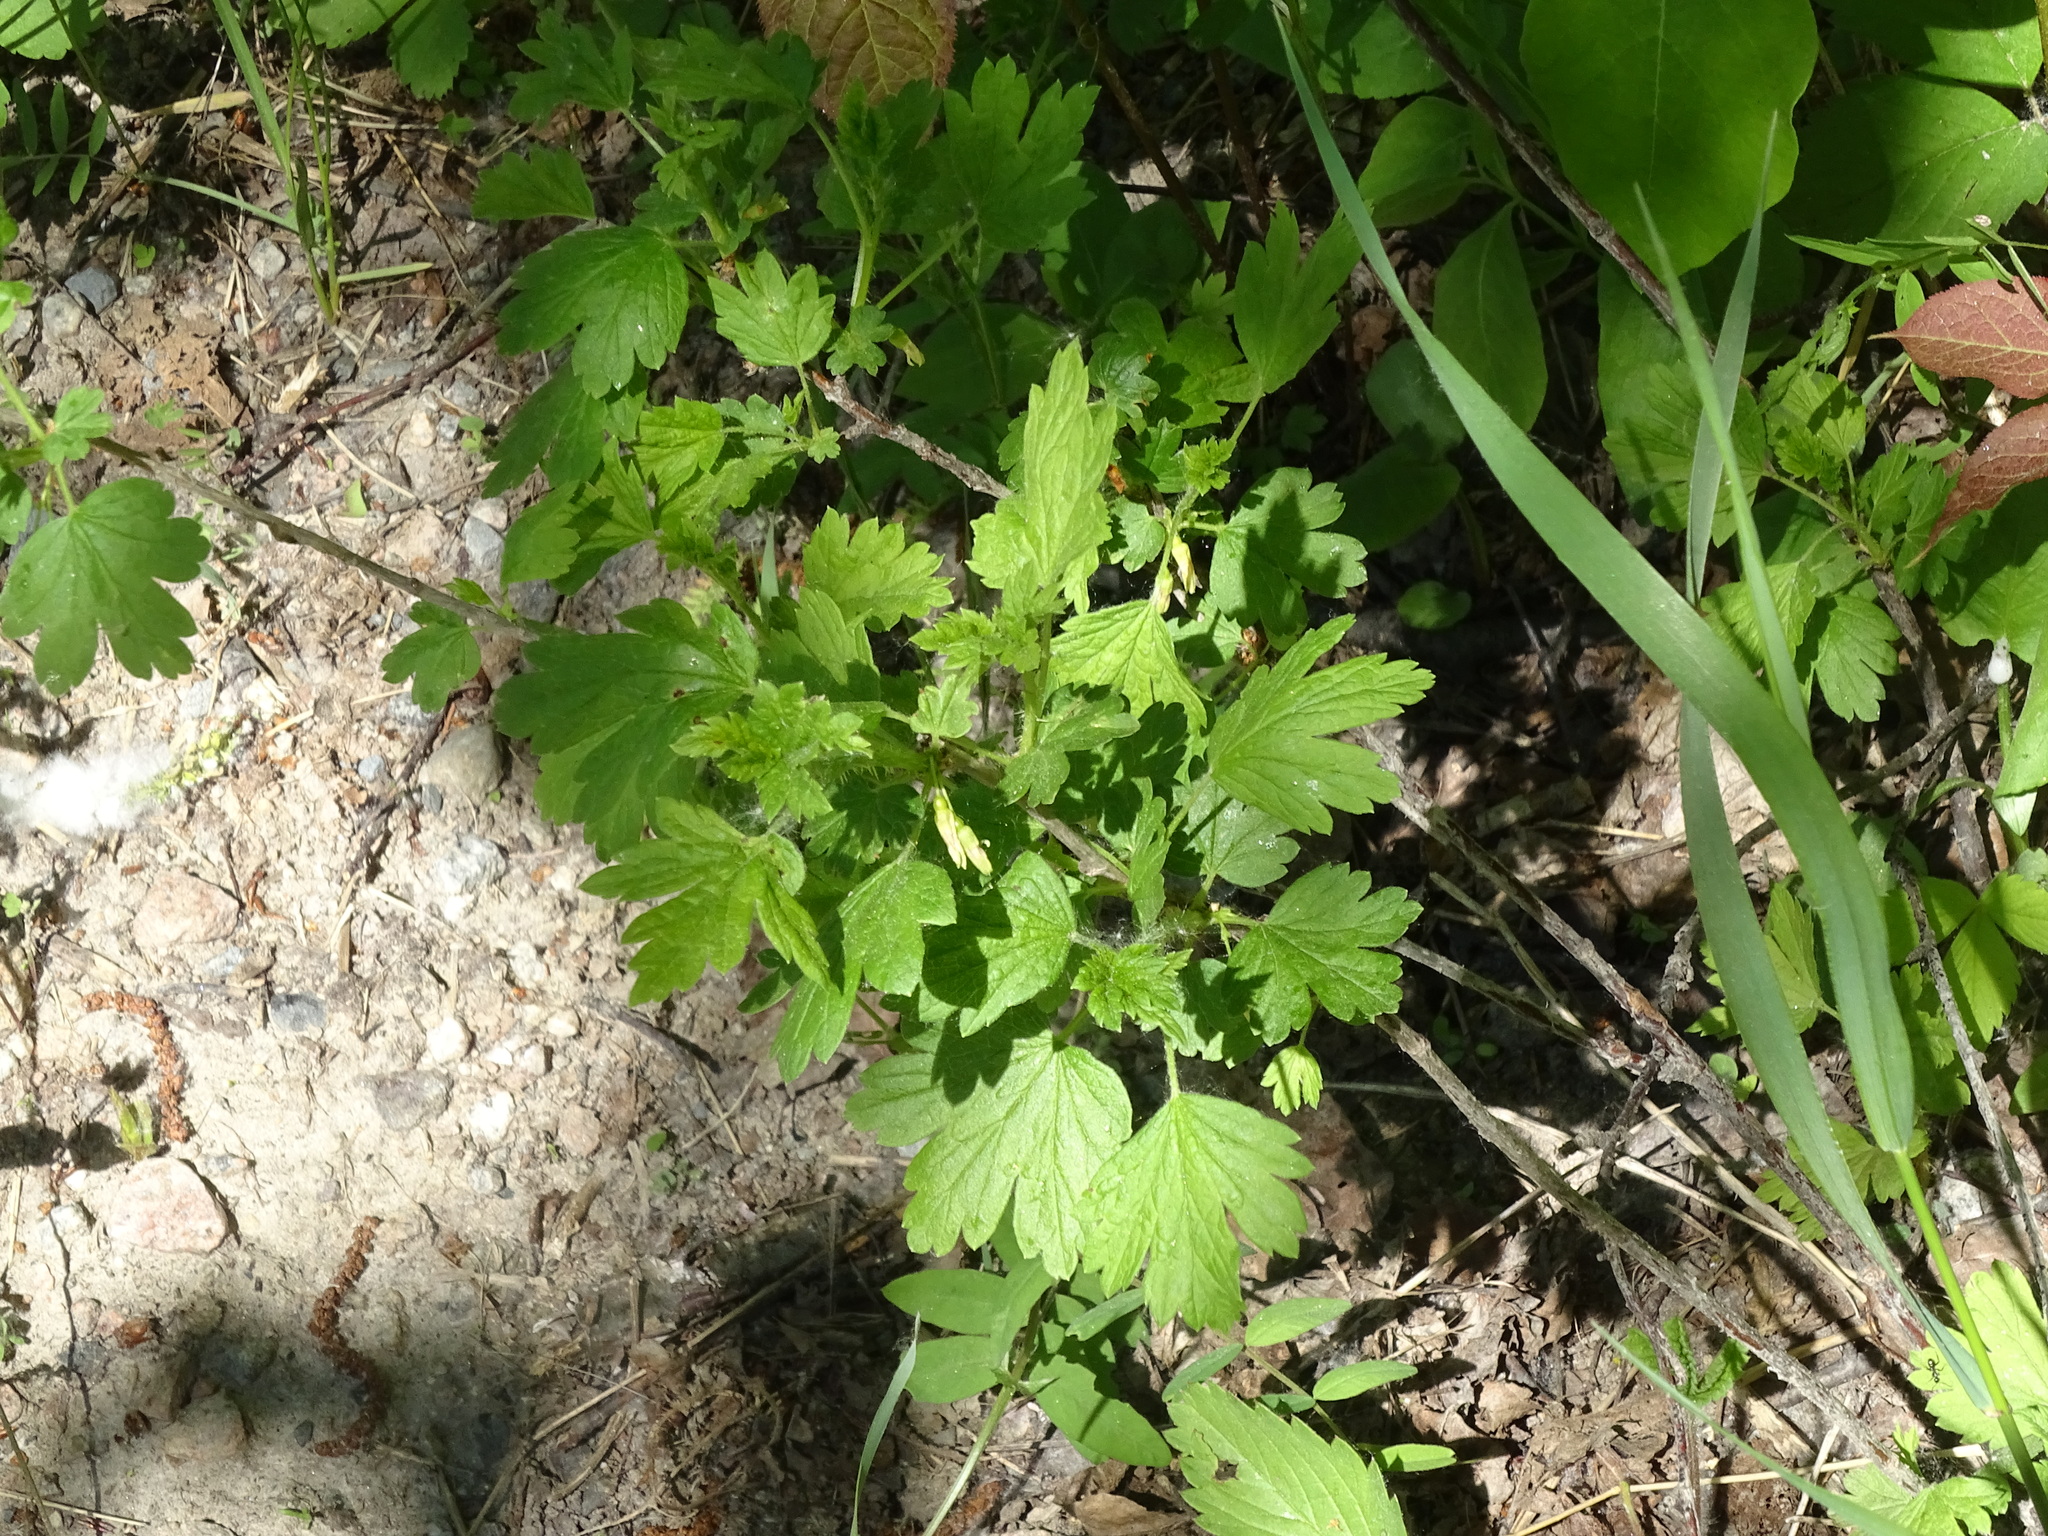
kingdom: Plantae
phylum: Tracheophyta
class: Magnoliopsida
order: Saxifragales
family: Grossulariaceae
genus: Ribes
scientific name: Ribes hirtellum
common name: Hairy gooseberry
